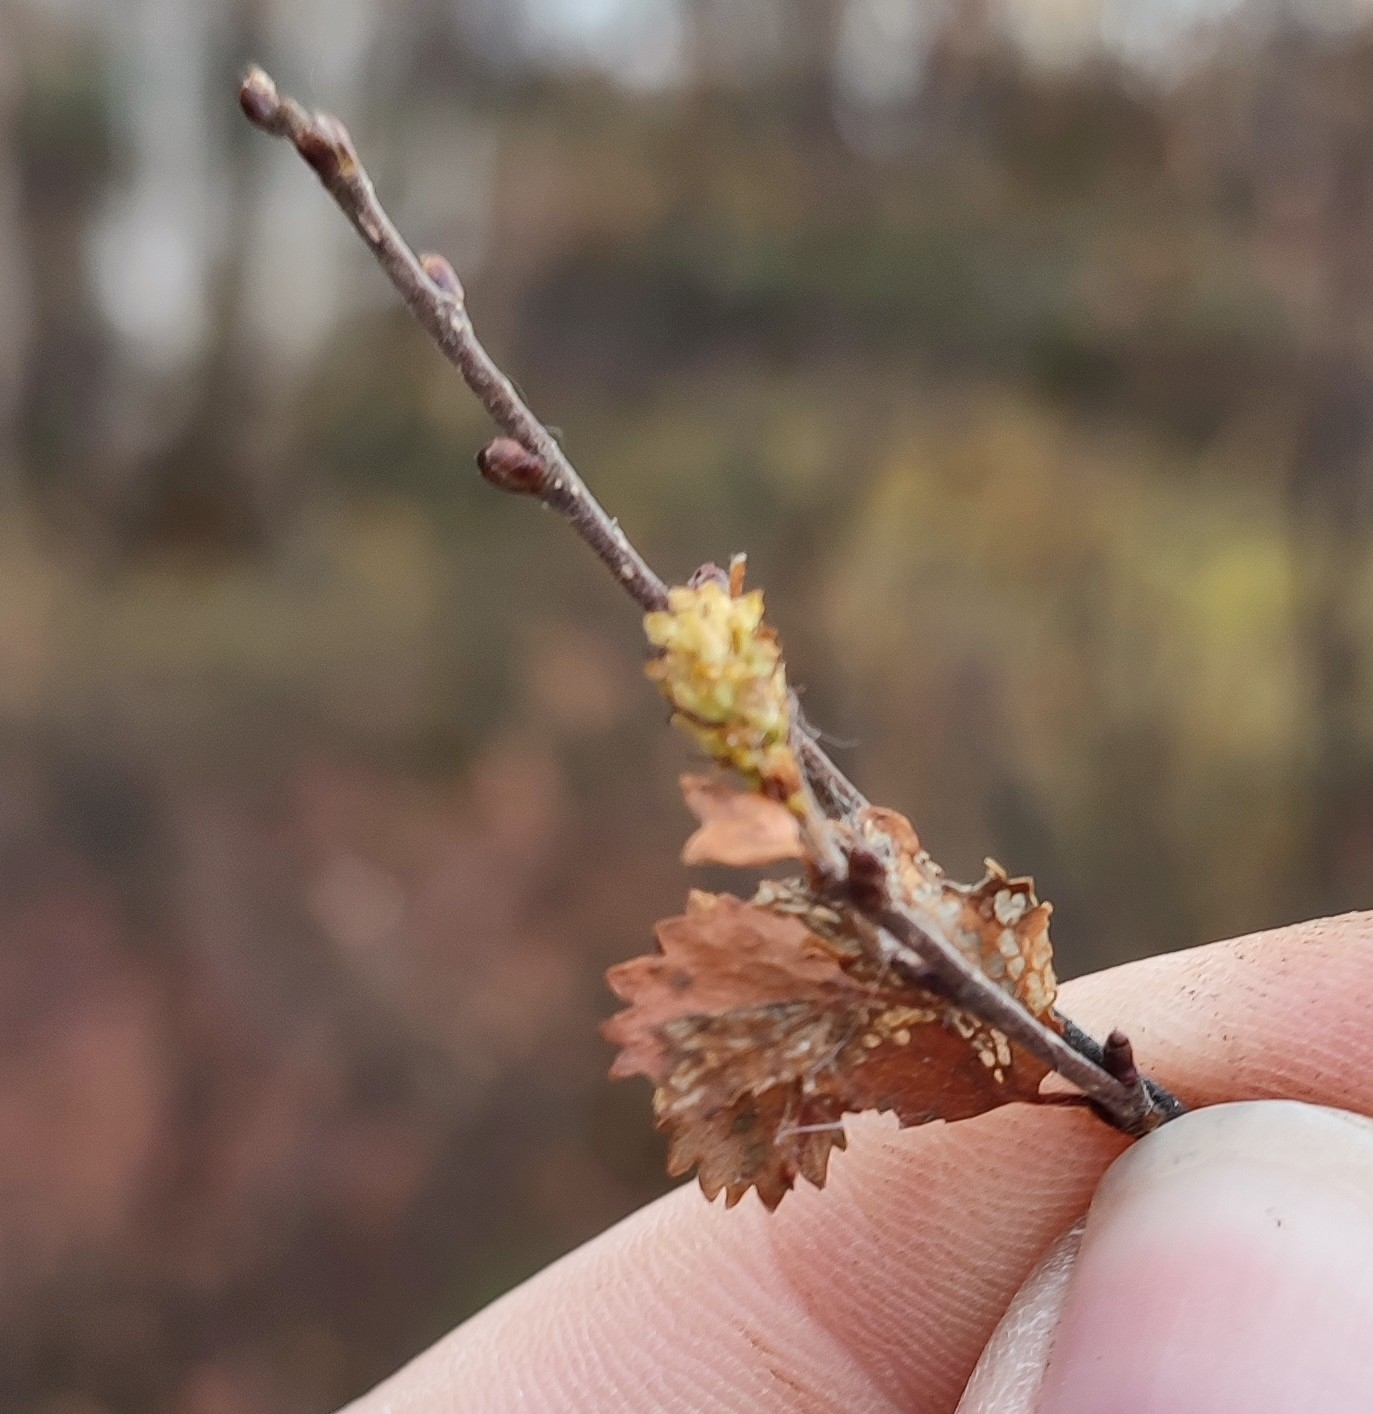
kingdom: Plantae
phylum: Tracheophyta
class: Magnoliopsida
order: Fagales
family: Betulaceae
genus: Betula
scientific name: Betula nana
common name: Arctic dwarf birch
